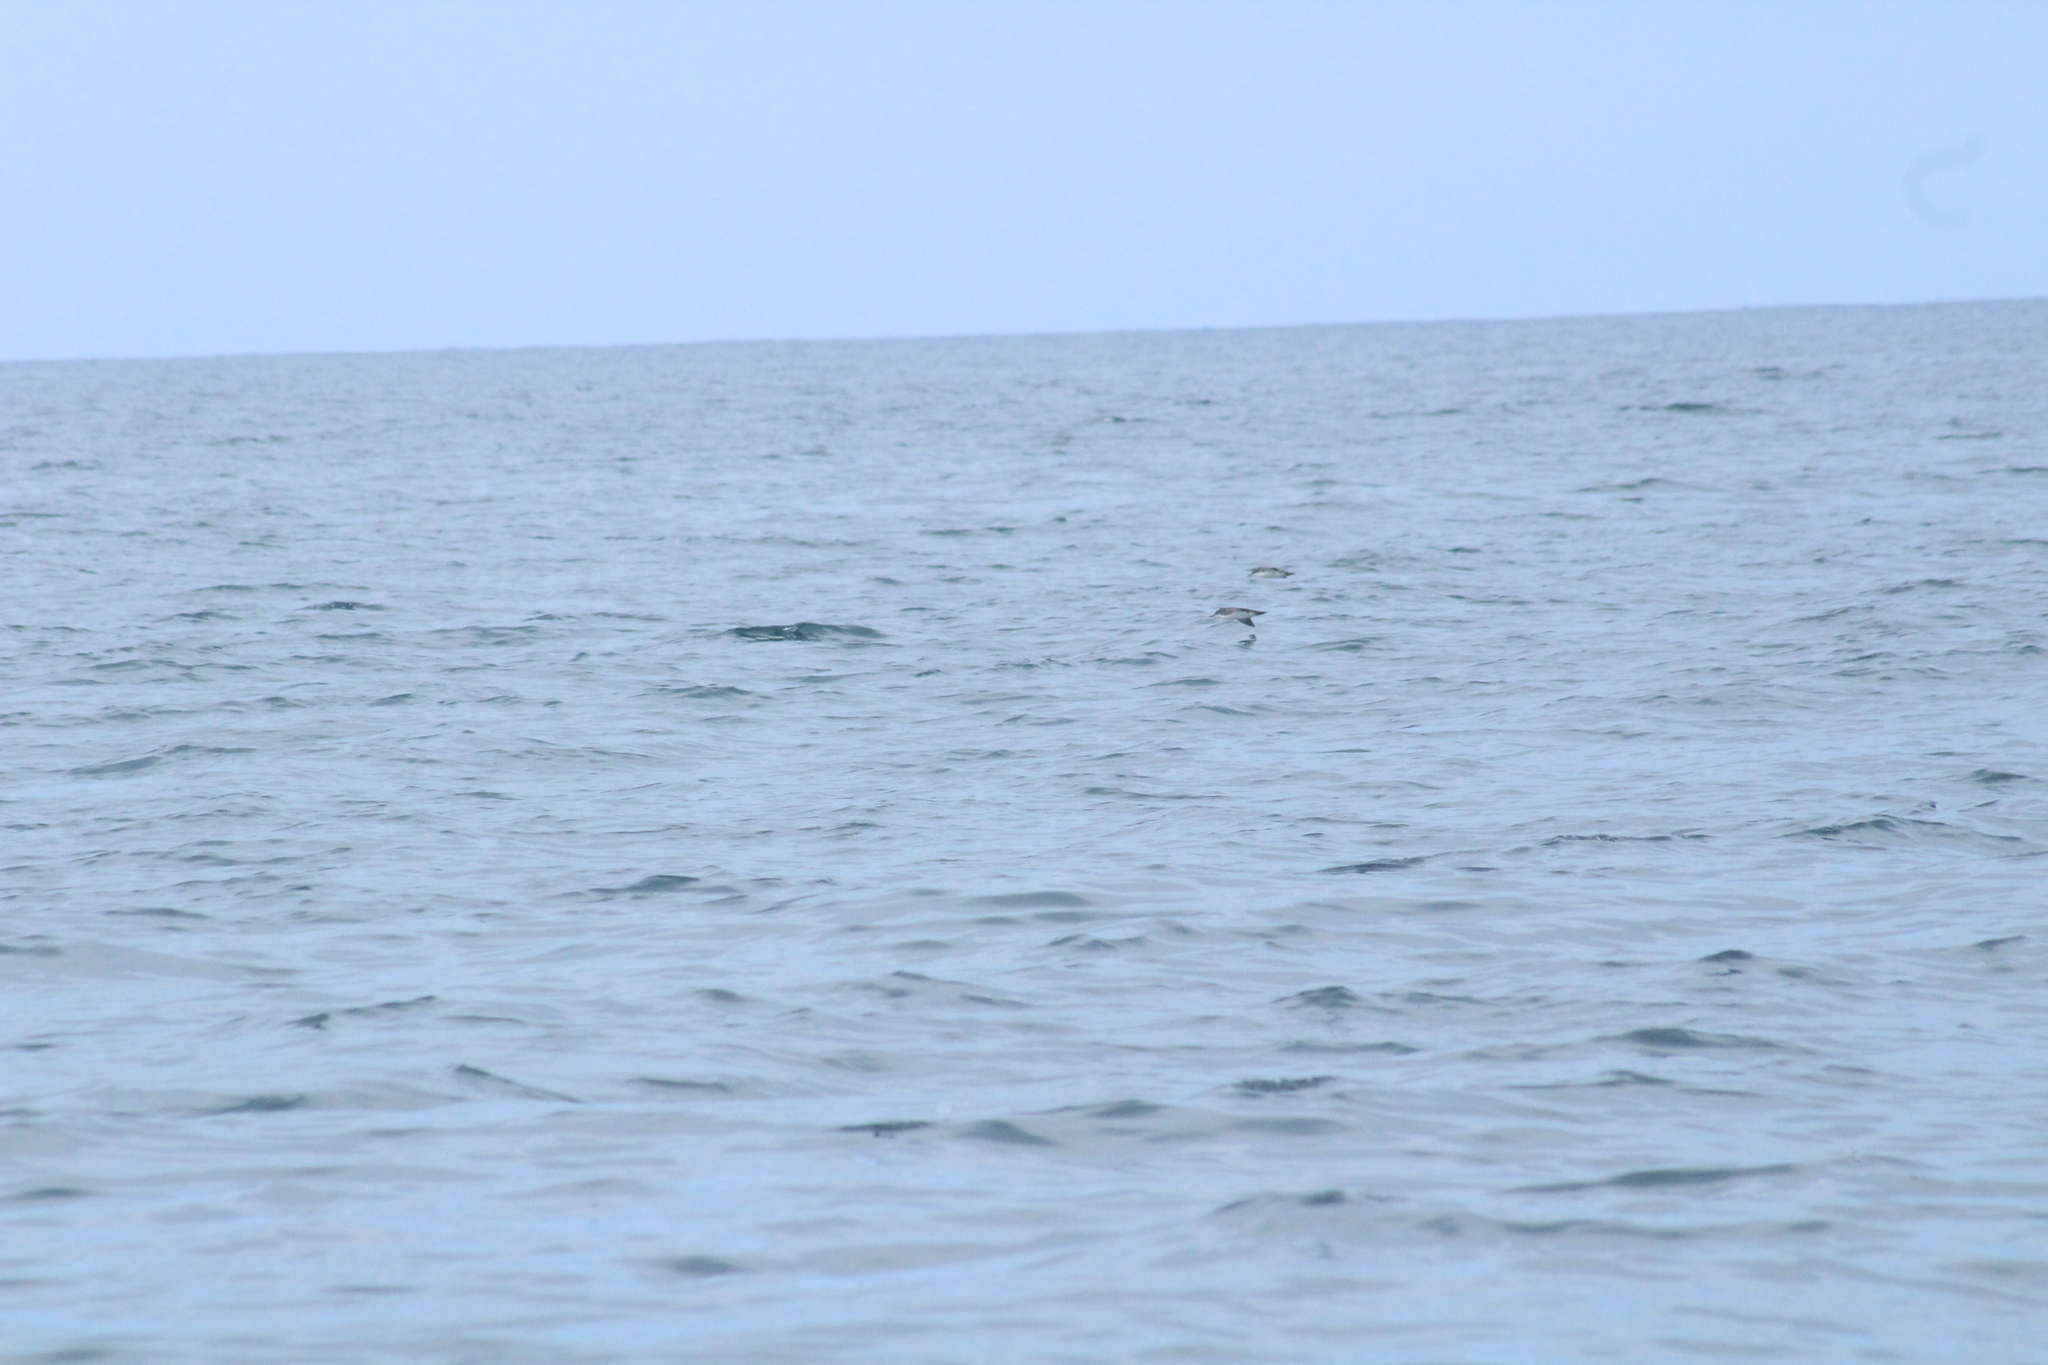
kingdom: Animalia
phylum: Chordata
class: Aves
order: Procellariiformes
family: Procellariidae
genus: Puffinus
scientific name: Puffinus subalaris
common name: Galapagos shearwater
